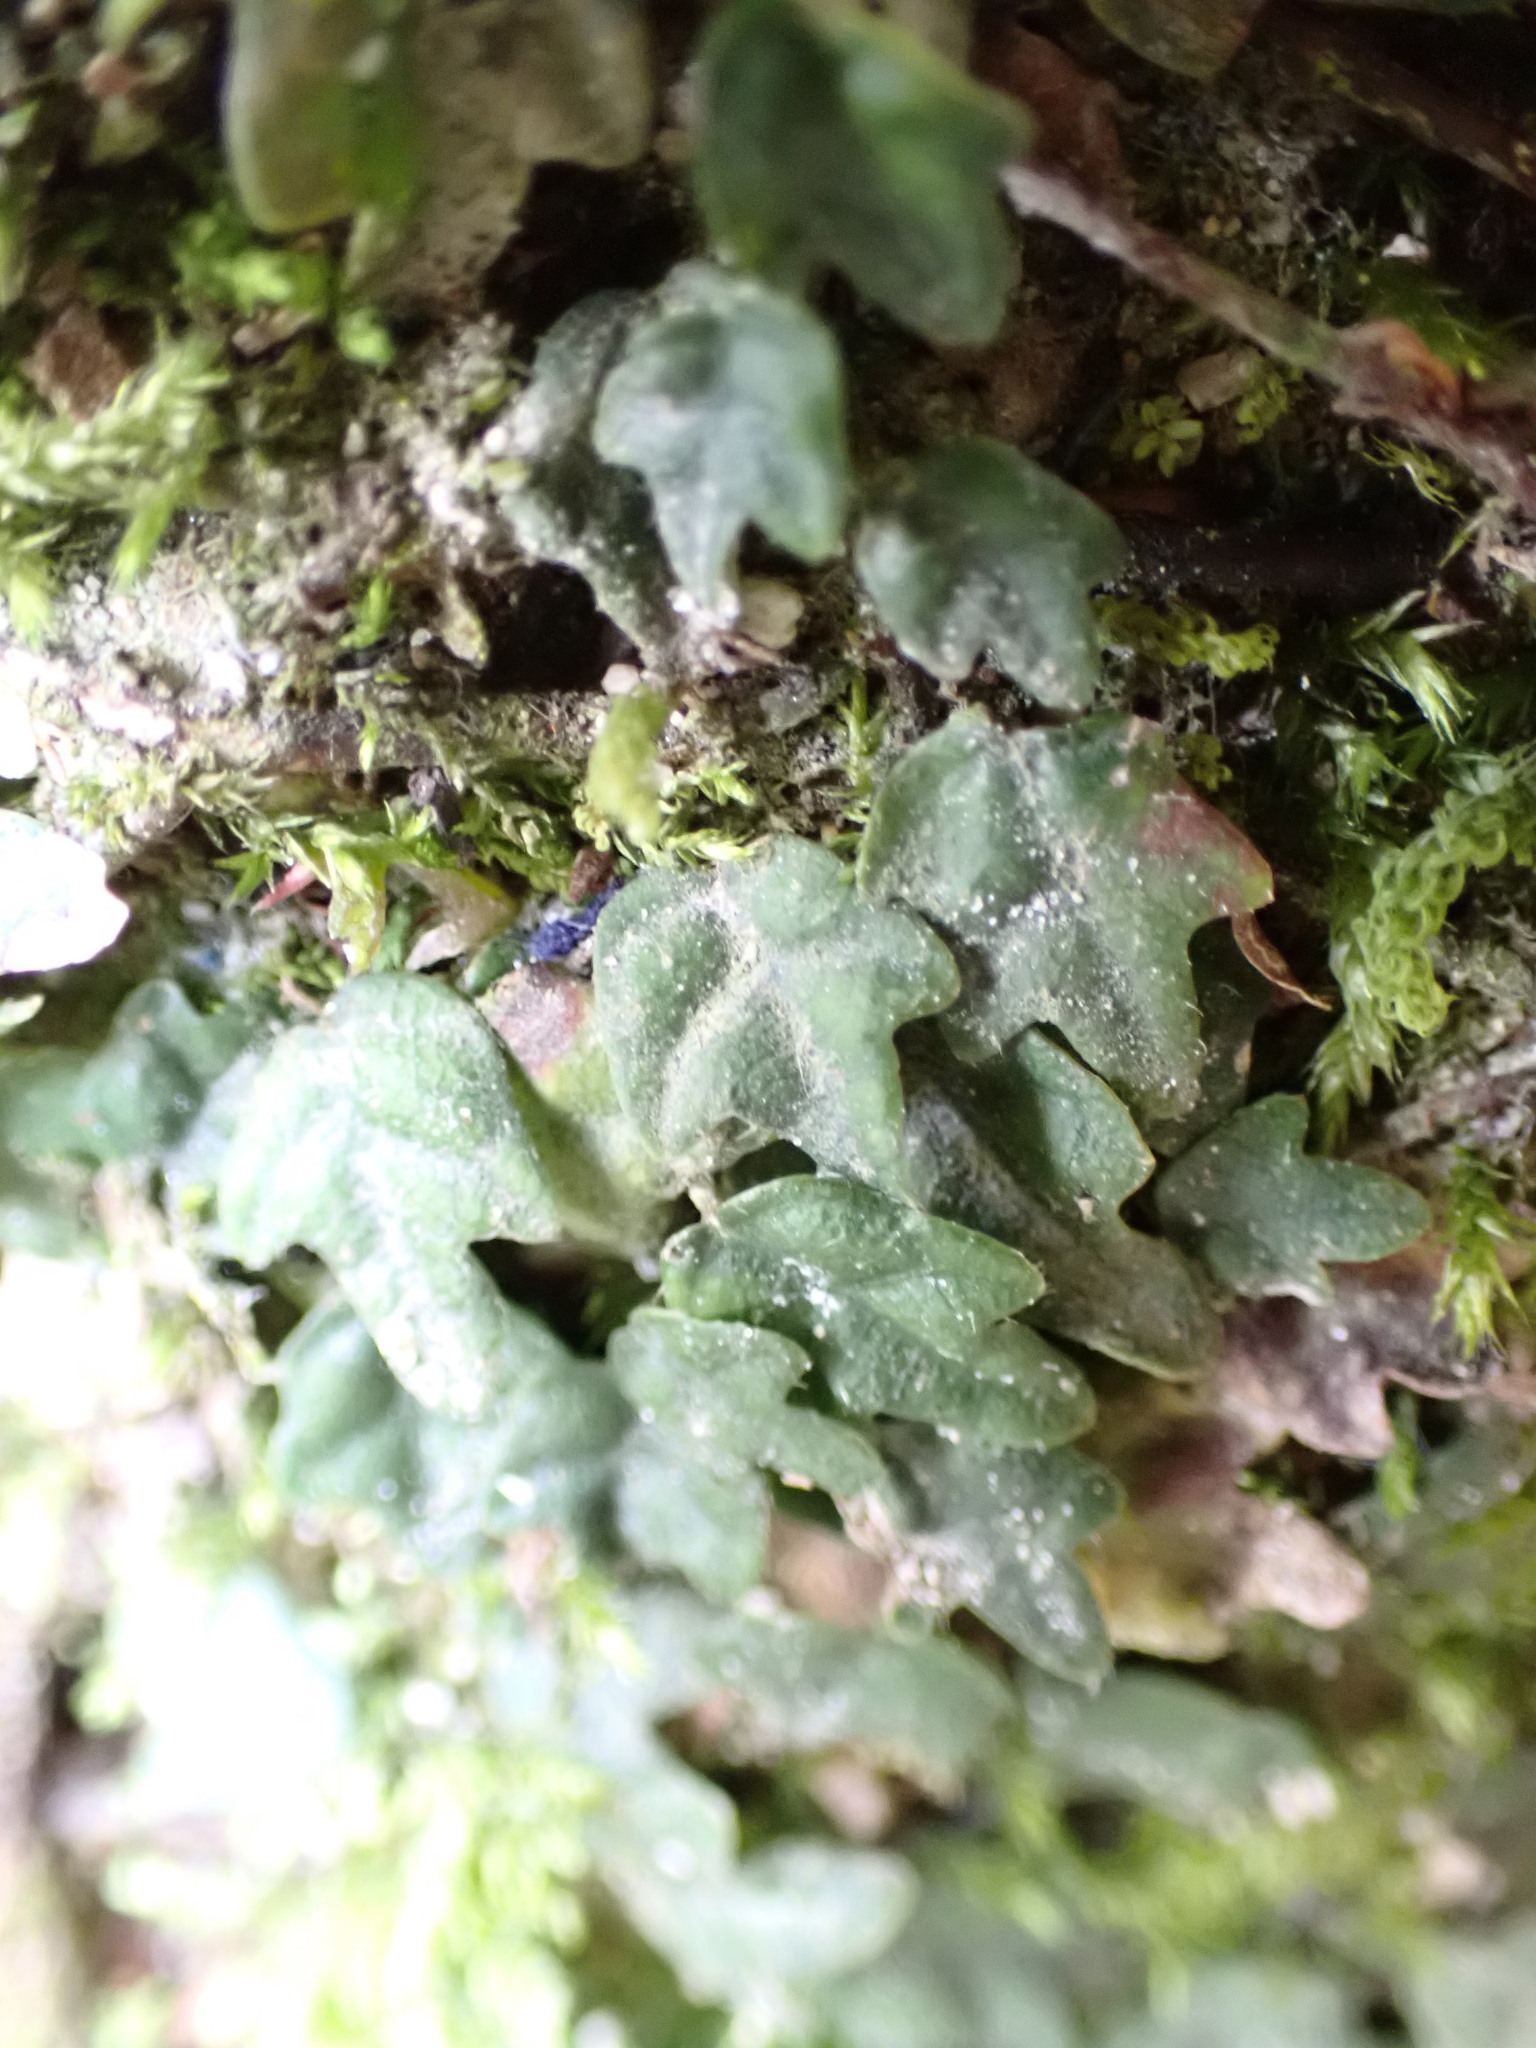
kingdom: Plantae
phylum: Tracheophyta
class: Magnoliopsida
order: Rosales
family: Moraceae
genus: Ficus
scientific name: Ficus sarmentosa
